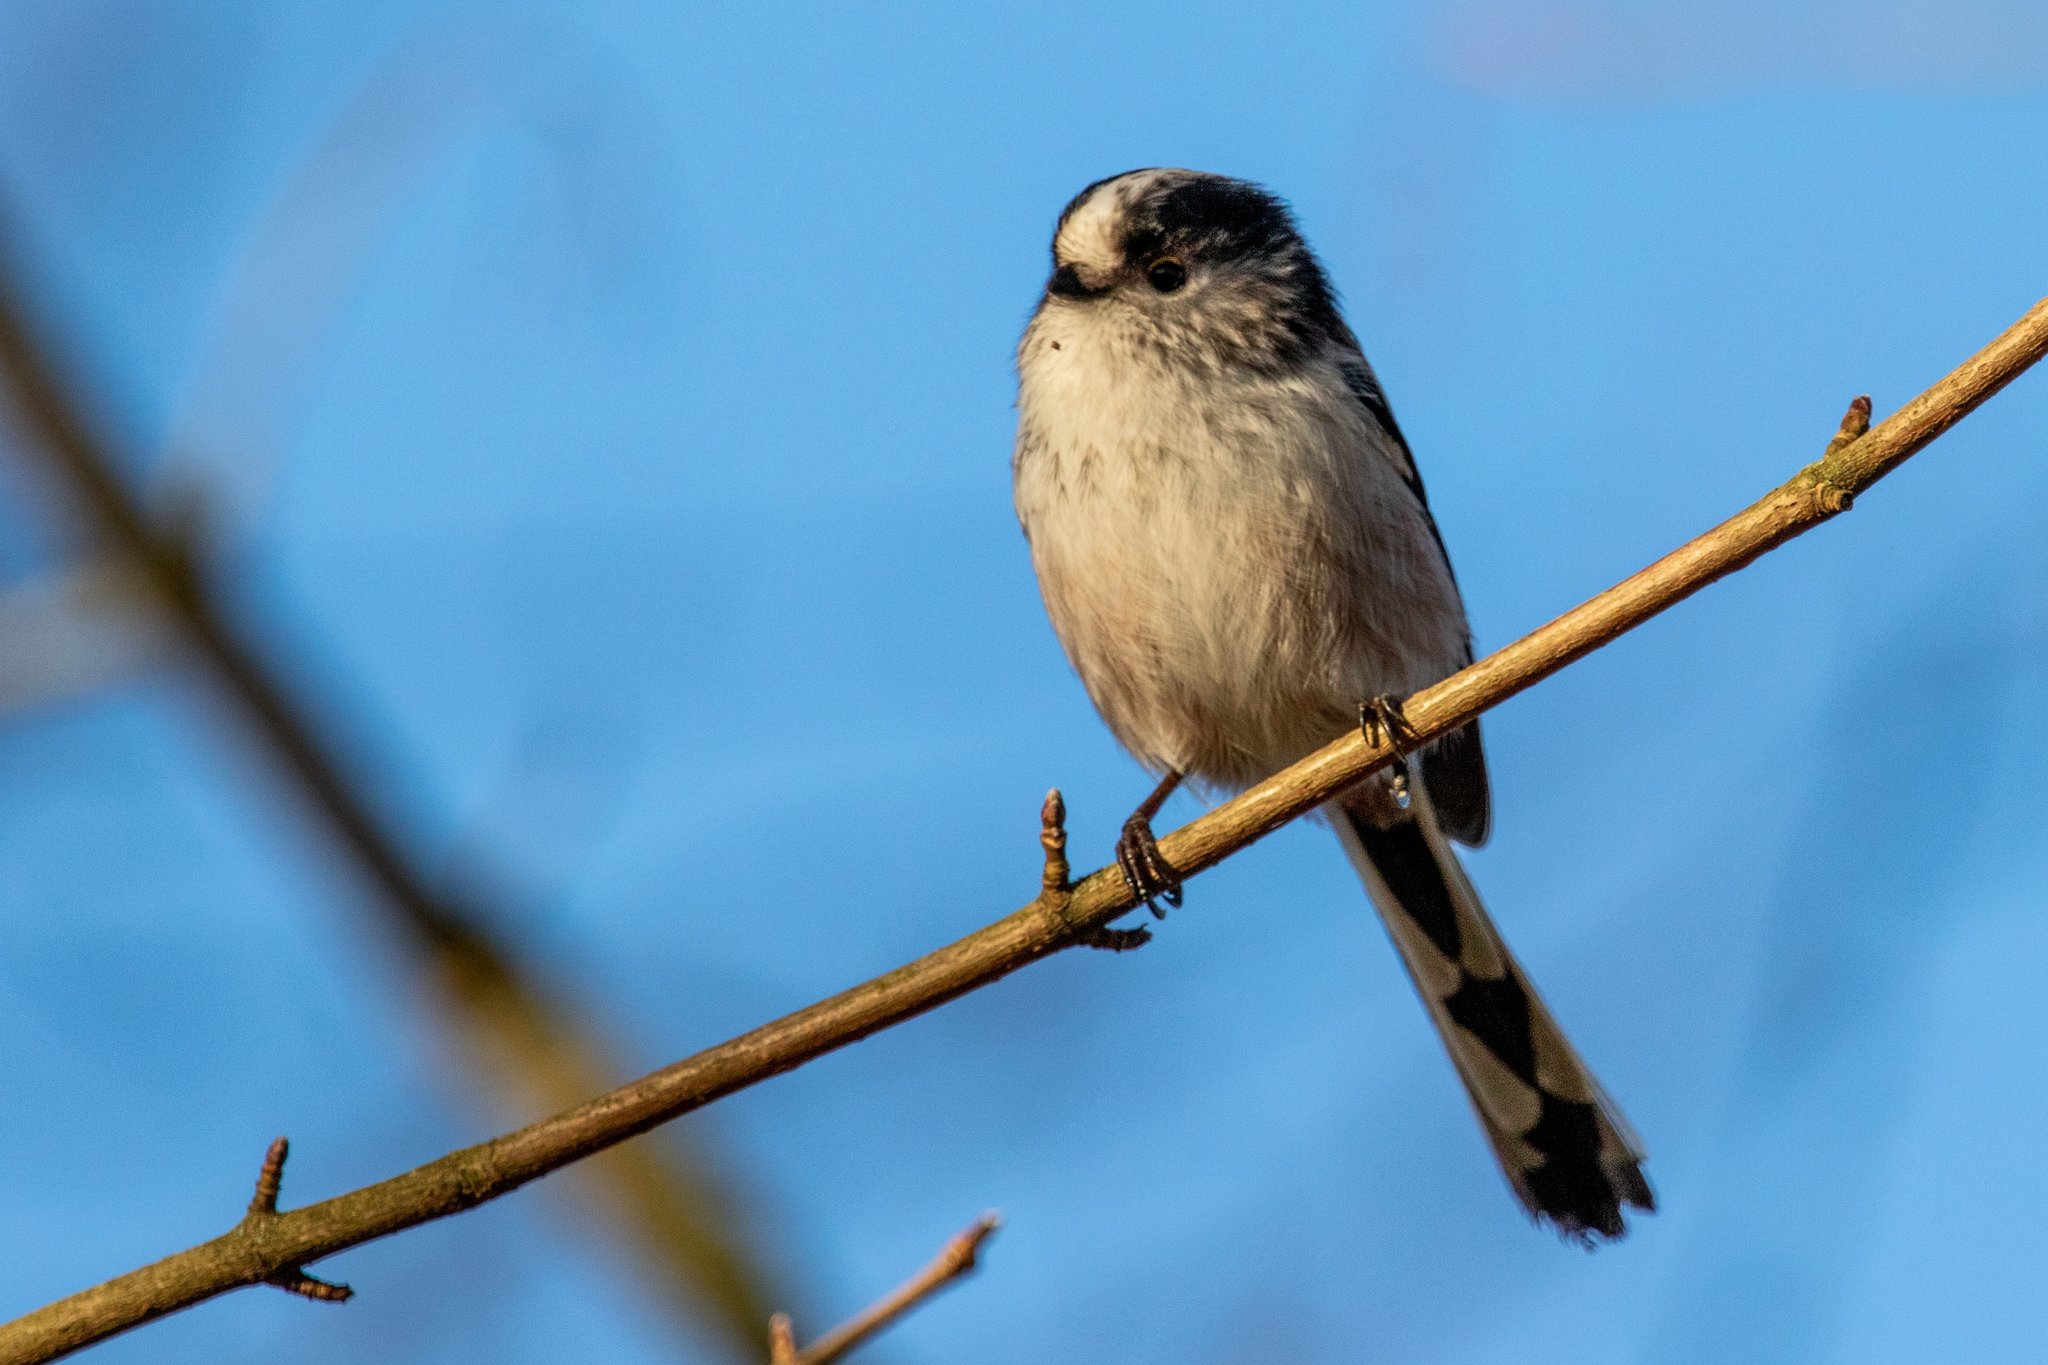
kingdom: Animalia
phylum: Chordata
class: Aves
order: Passeriformes
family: Aegithalidae
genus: Aegithalos
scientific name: Aegithalos caudatus
